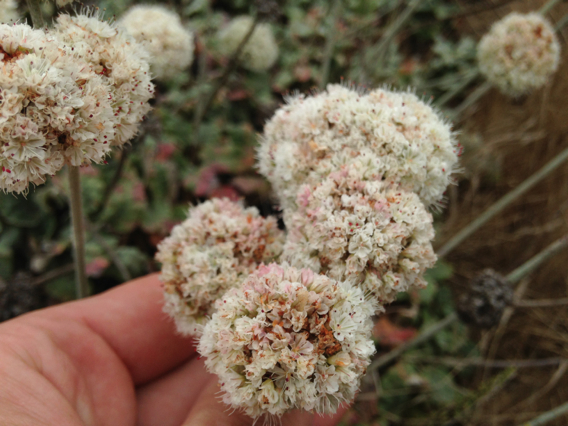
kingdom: Plantae
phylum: Tracheophyta
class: Magnoliopsida
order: Caryophyllales
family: Polygonaceae
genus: Eriogonum
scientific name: Eriogonum latifolium
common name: Seaside wild buckwheat
